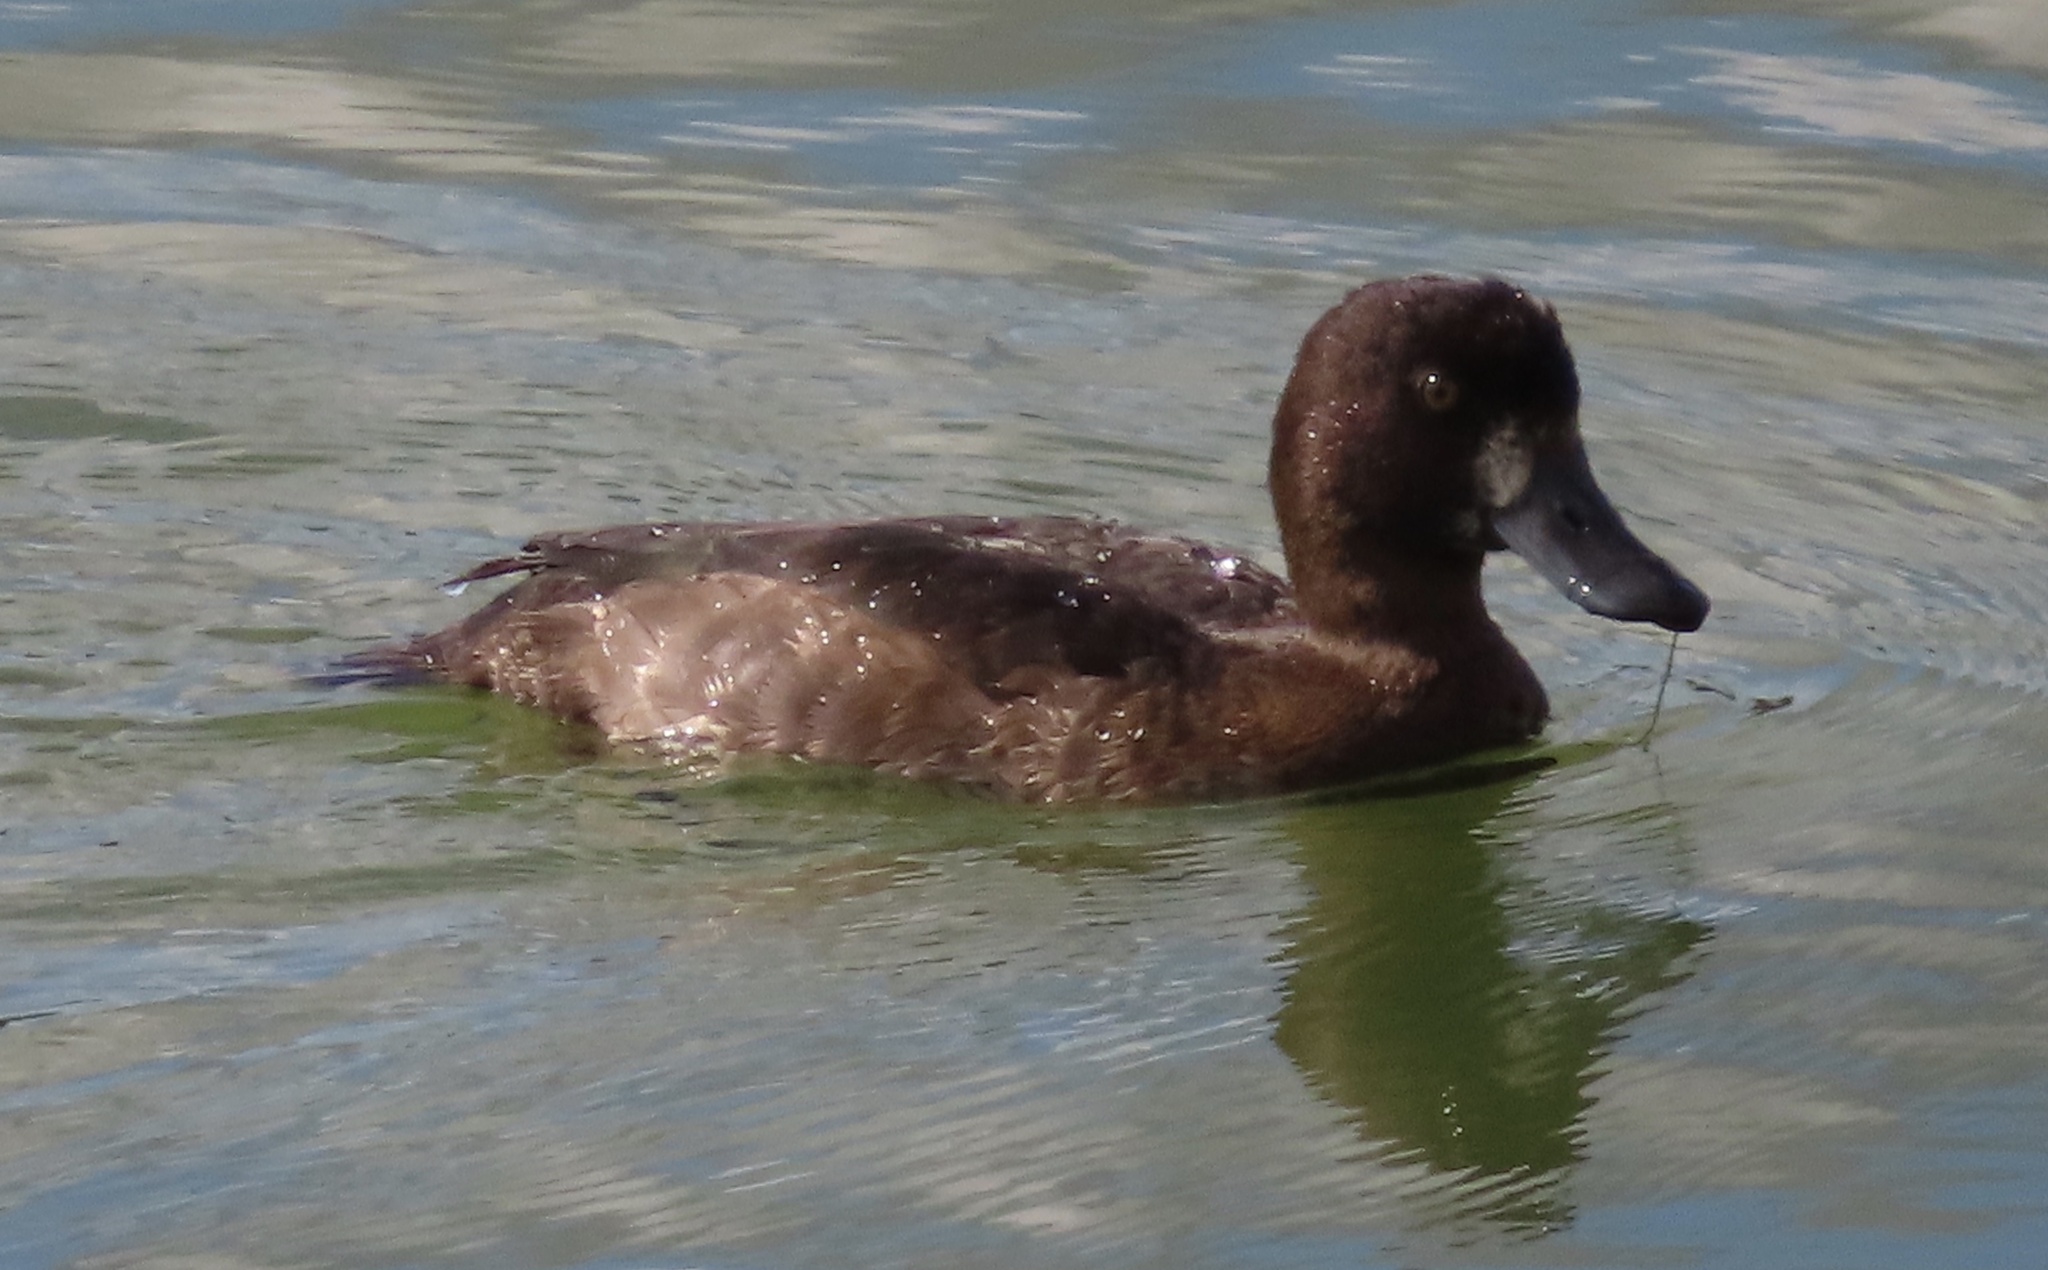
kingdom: Animalia
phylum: Chordata
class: Aves
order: Anseriformes
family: Anatidae
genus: Aythya
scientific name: Aythya fuligula
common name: Tufted duck
